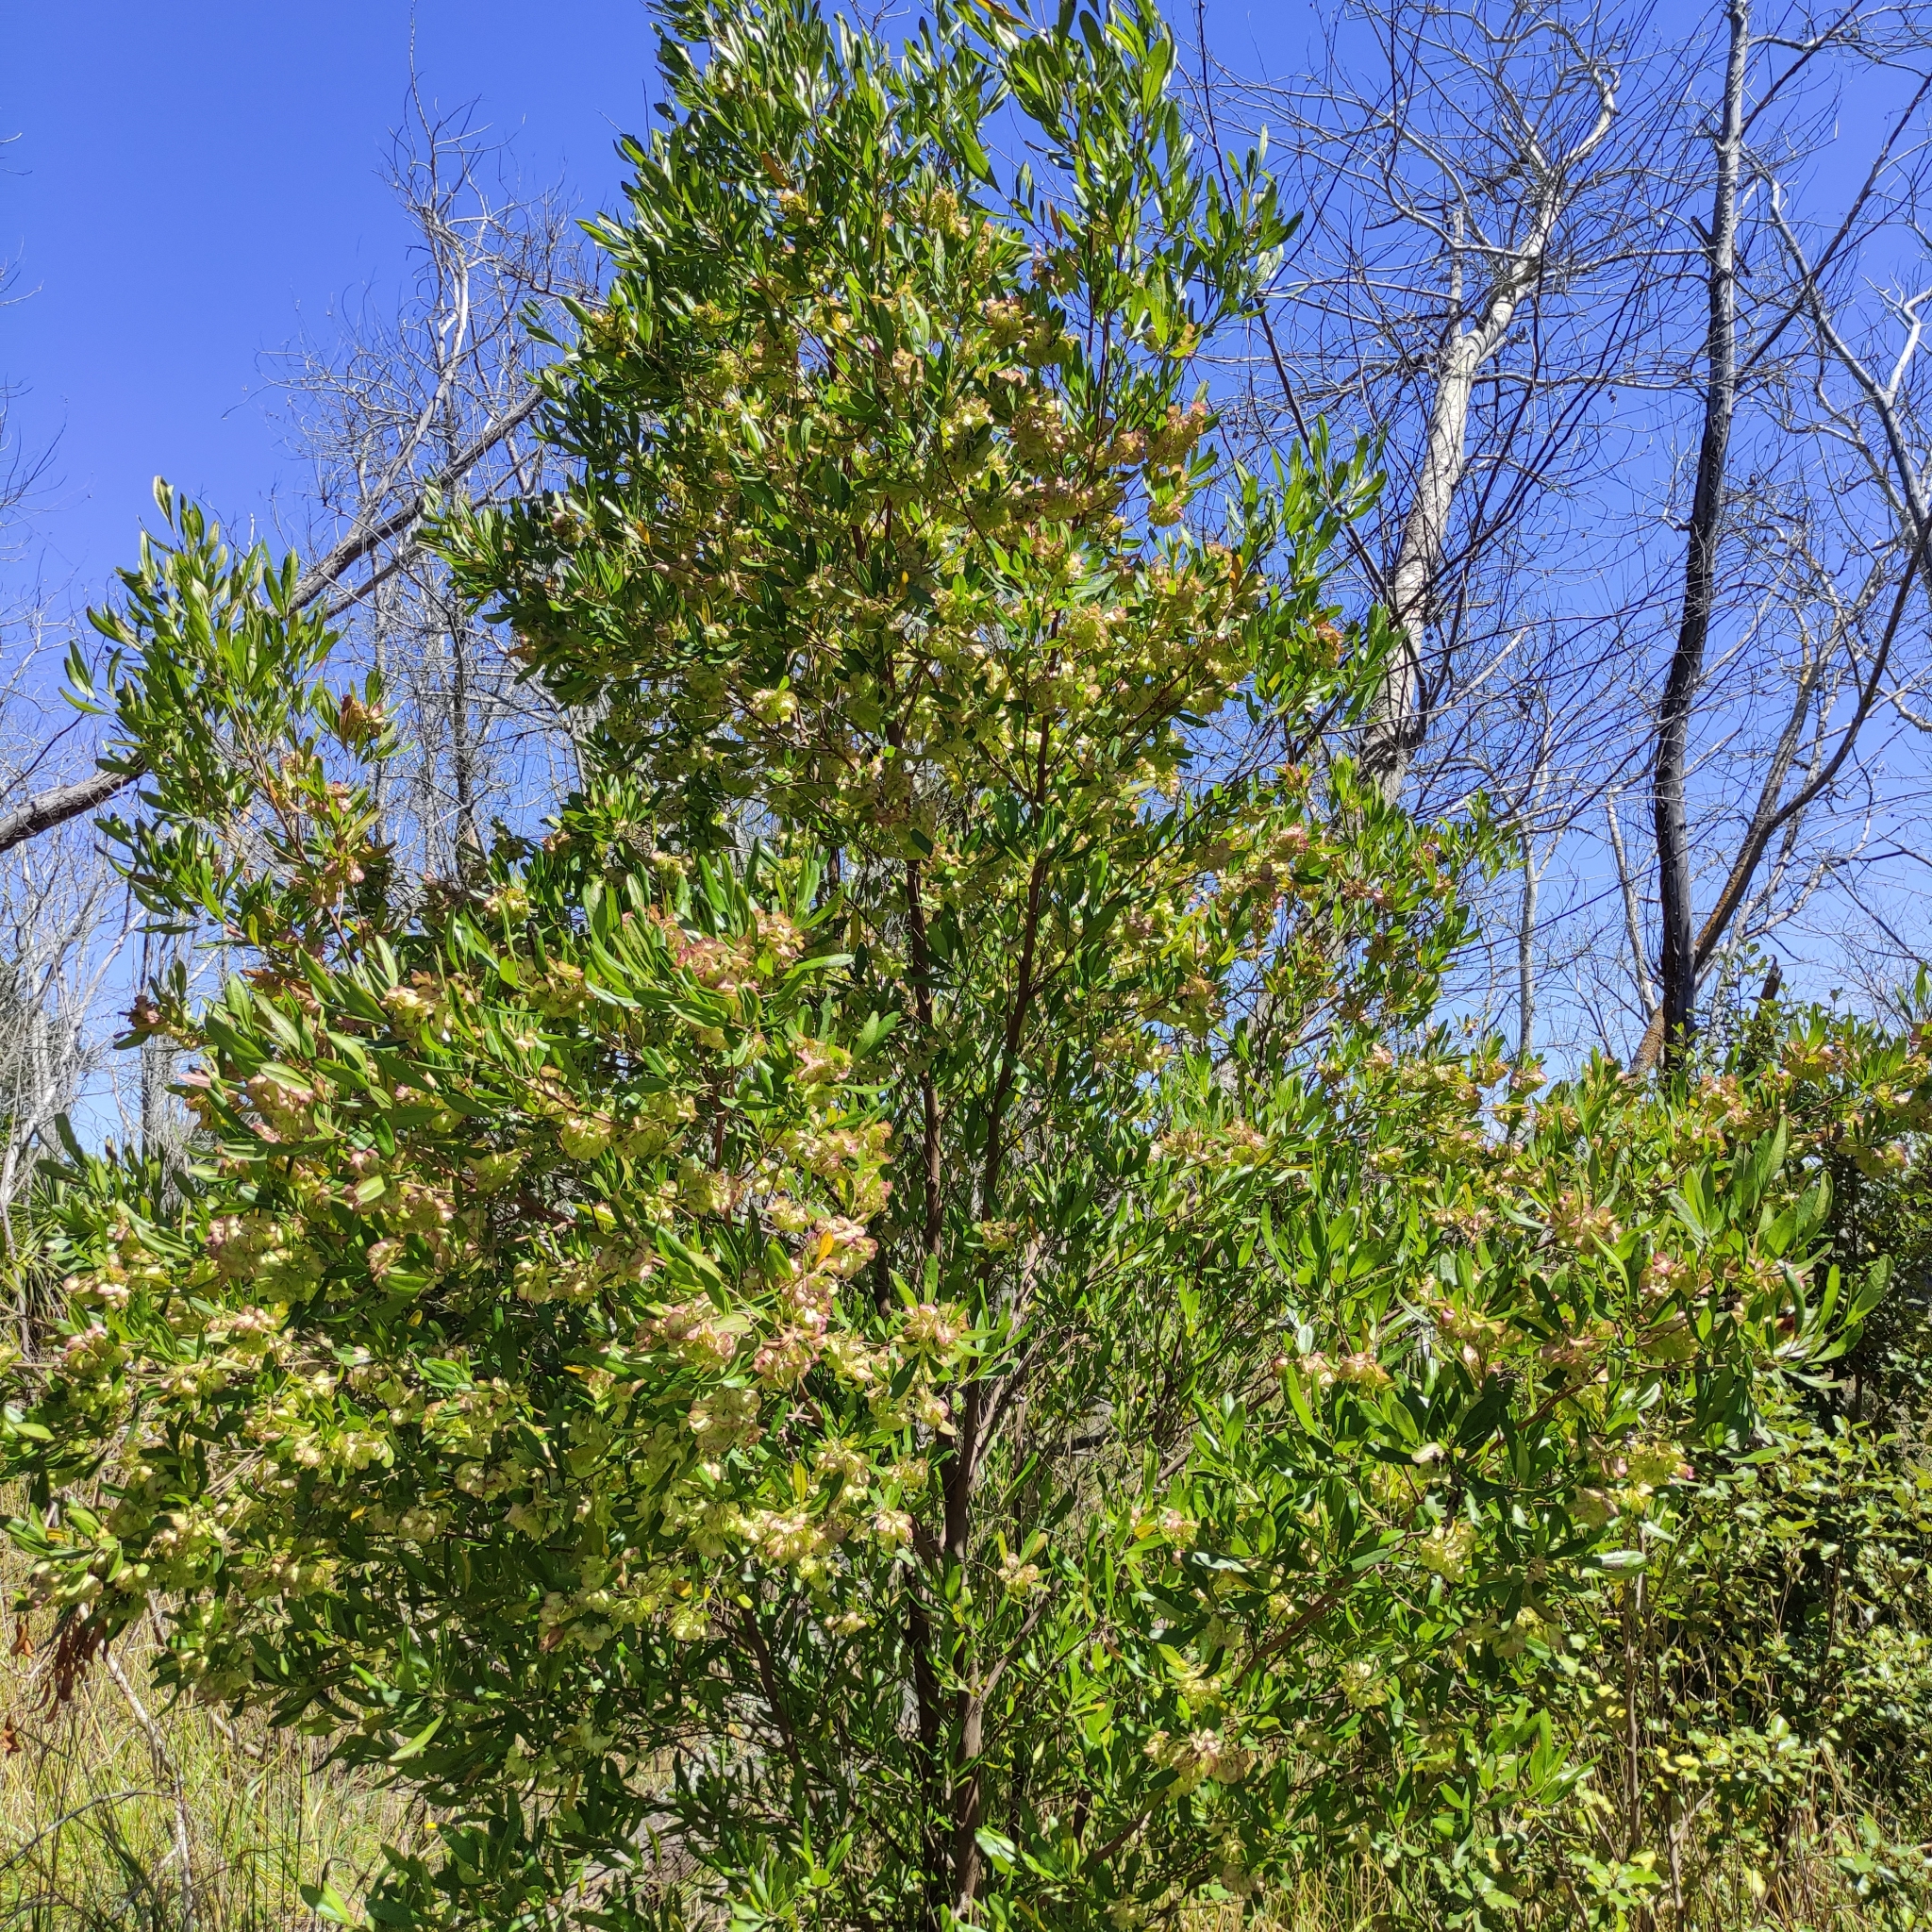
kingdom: Plantae
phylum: Tracheophyta
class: Magnoliopsida
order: Sapindales
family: Sapindaceae
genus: Dodonaea
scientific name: Dodonaea viscosa
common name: Hopbush
